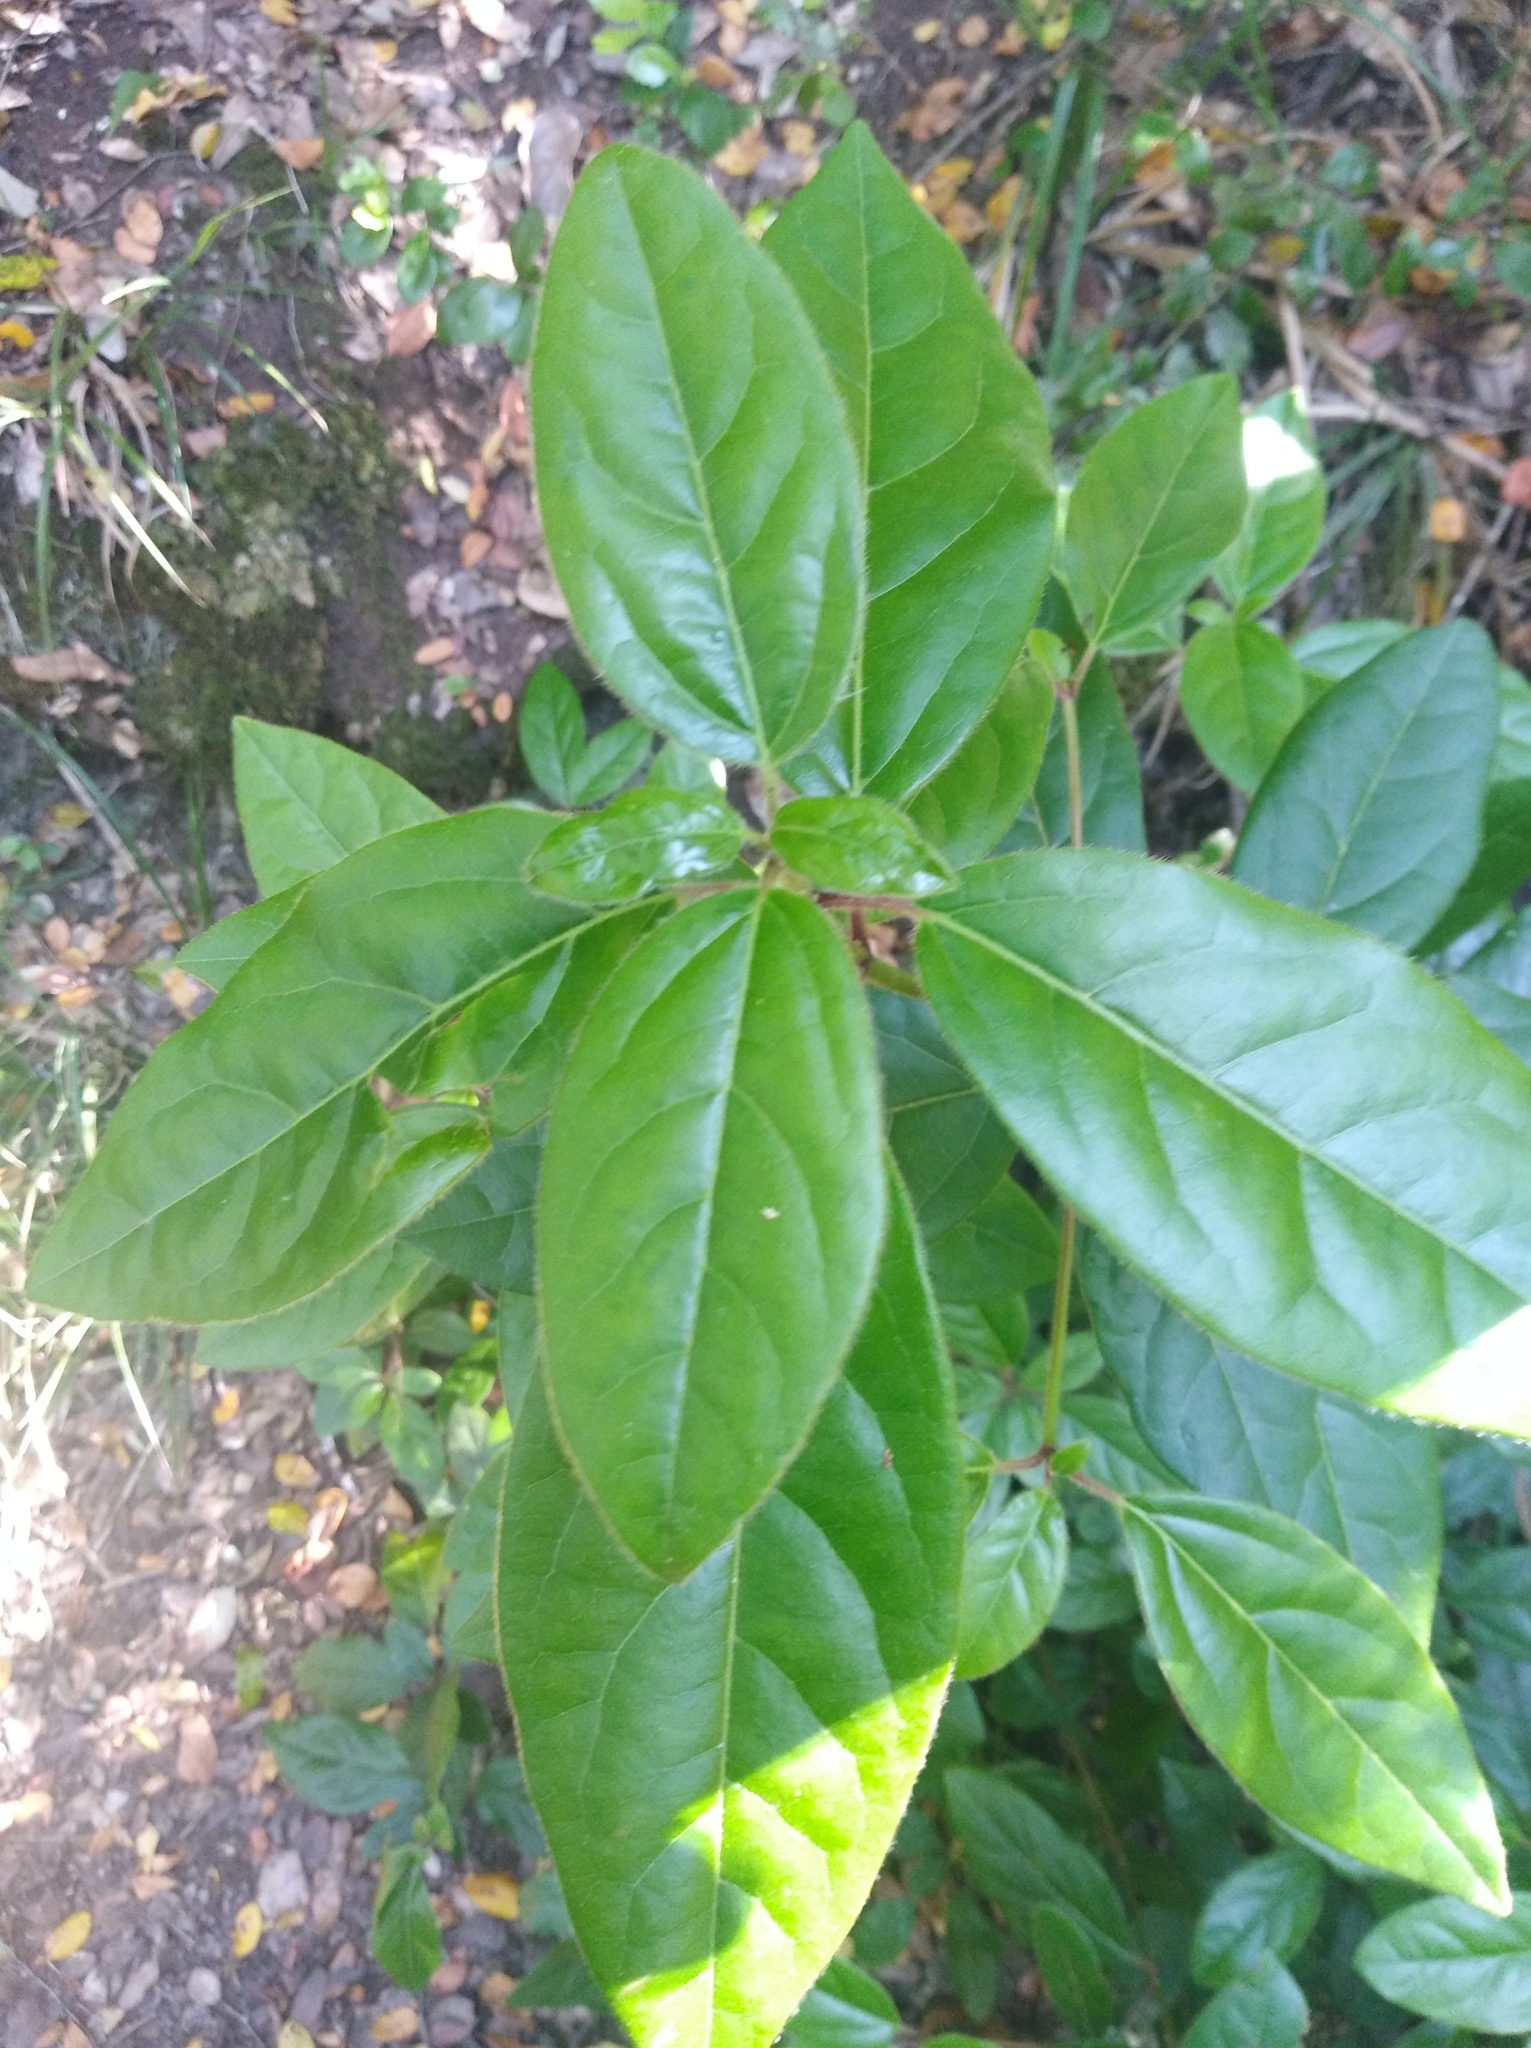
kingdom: Plantae
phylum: Tracheophyta
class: Magnoliopsida
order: Gentianales
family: Apocynaceae
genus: Mandevilla
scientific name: Mandevilla pubescens
